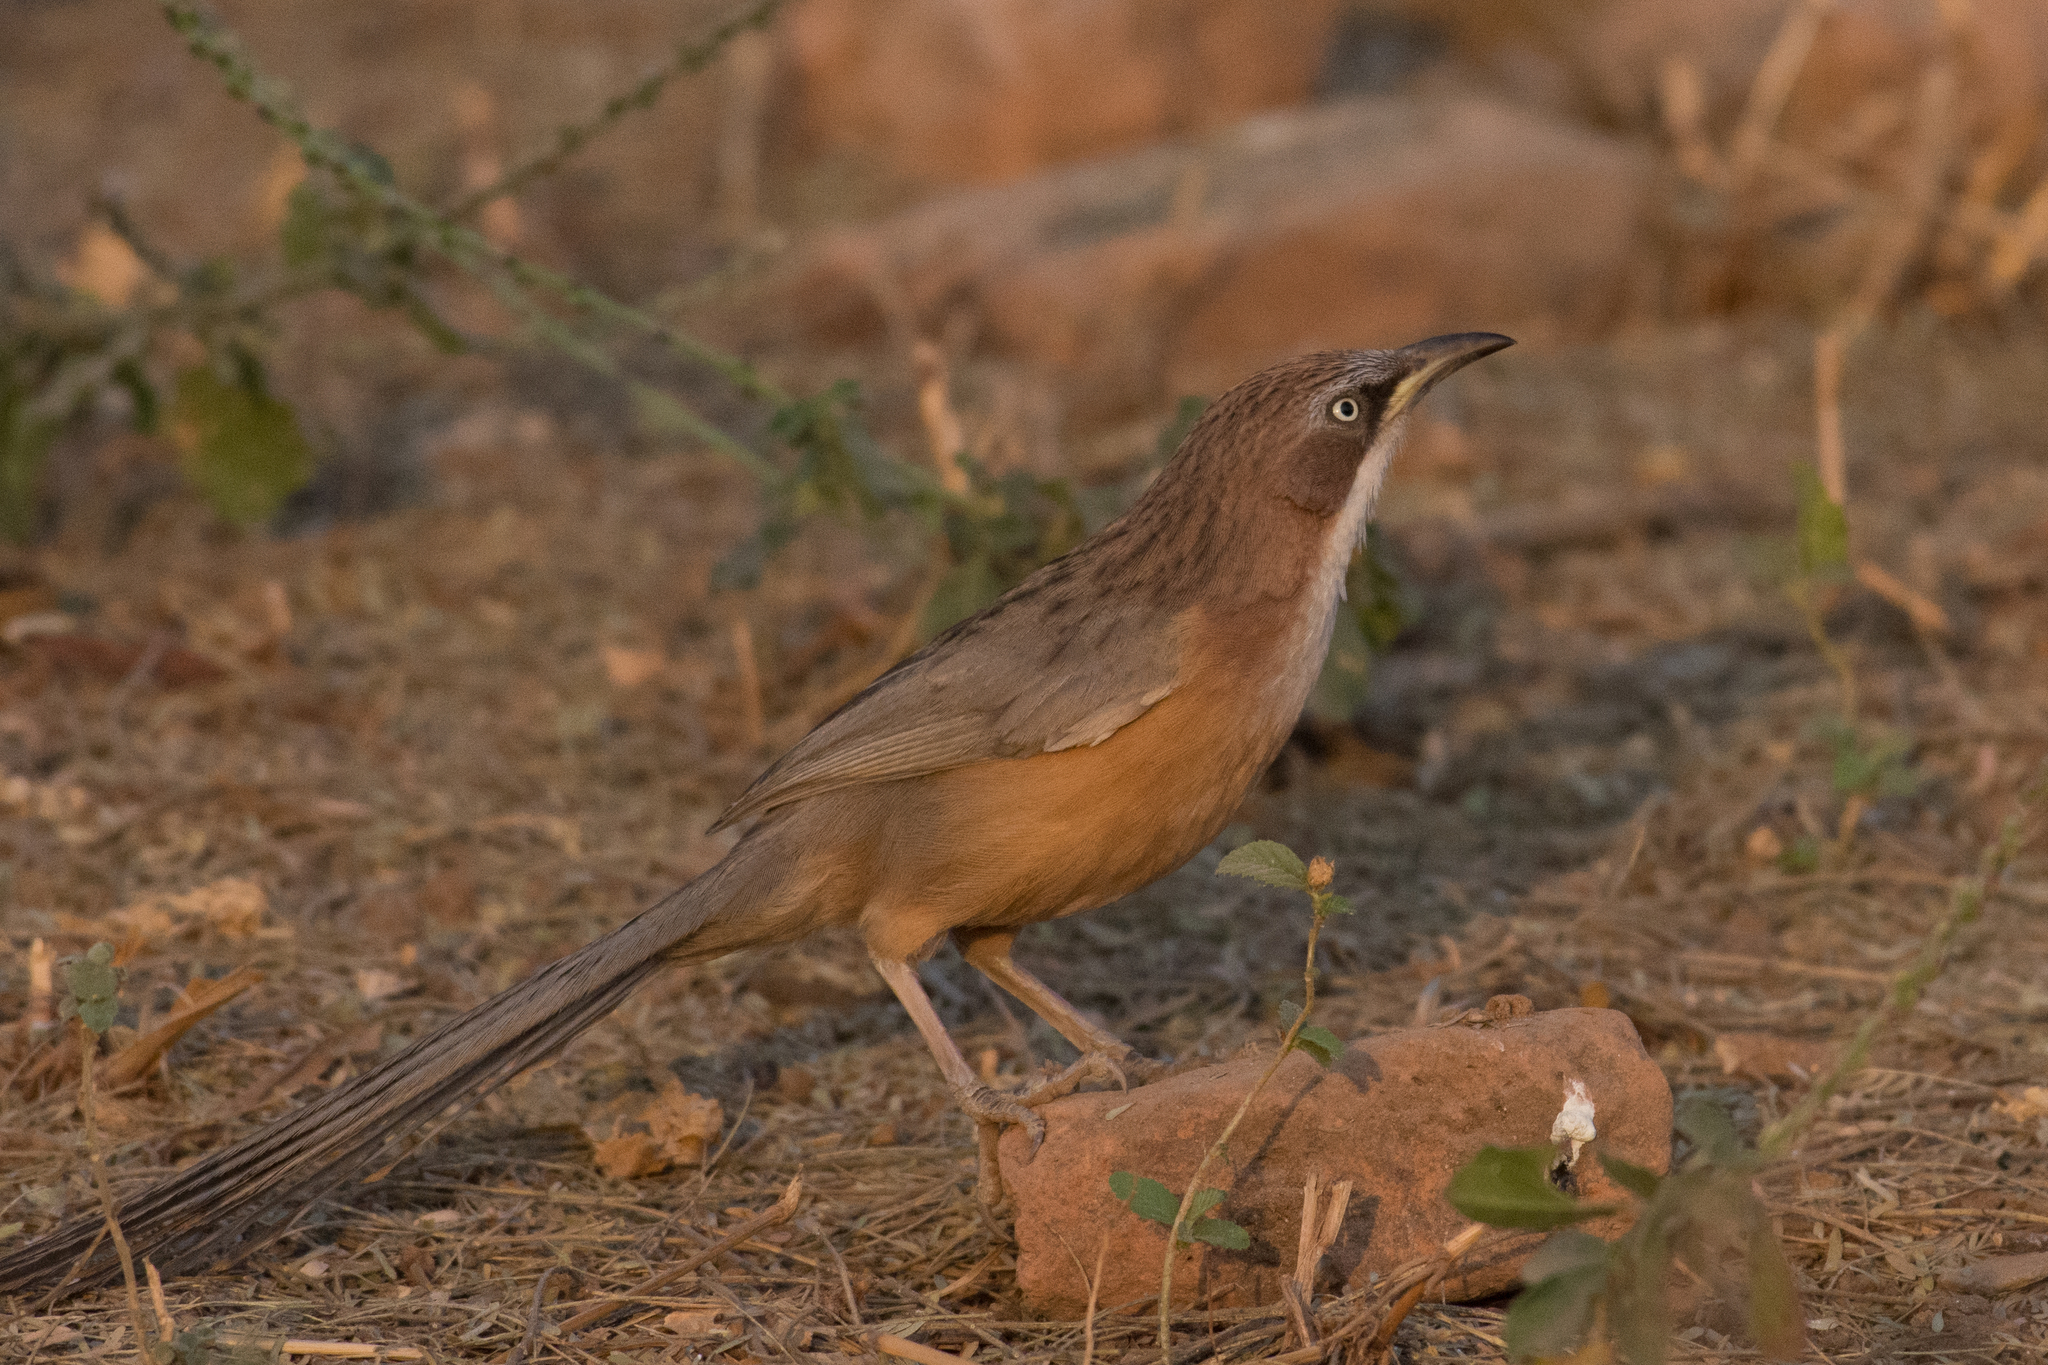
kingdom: Animalia
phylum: Chordata
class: Aves
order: Passeriformes
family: Leiothrichidae
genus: Turdoides
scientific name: Turdoides gularis
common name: White-throated babbler
